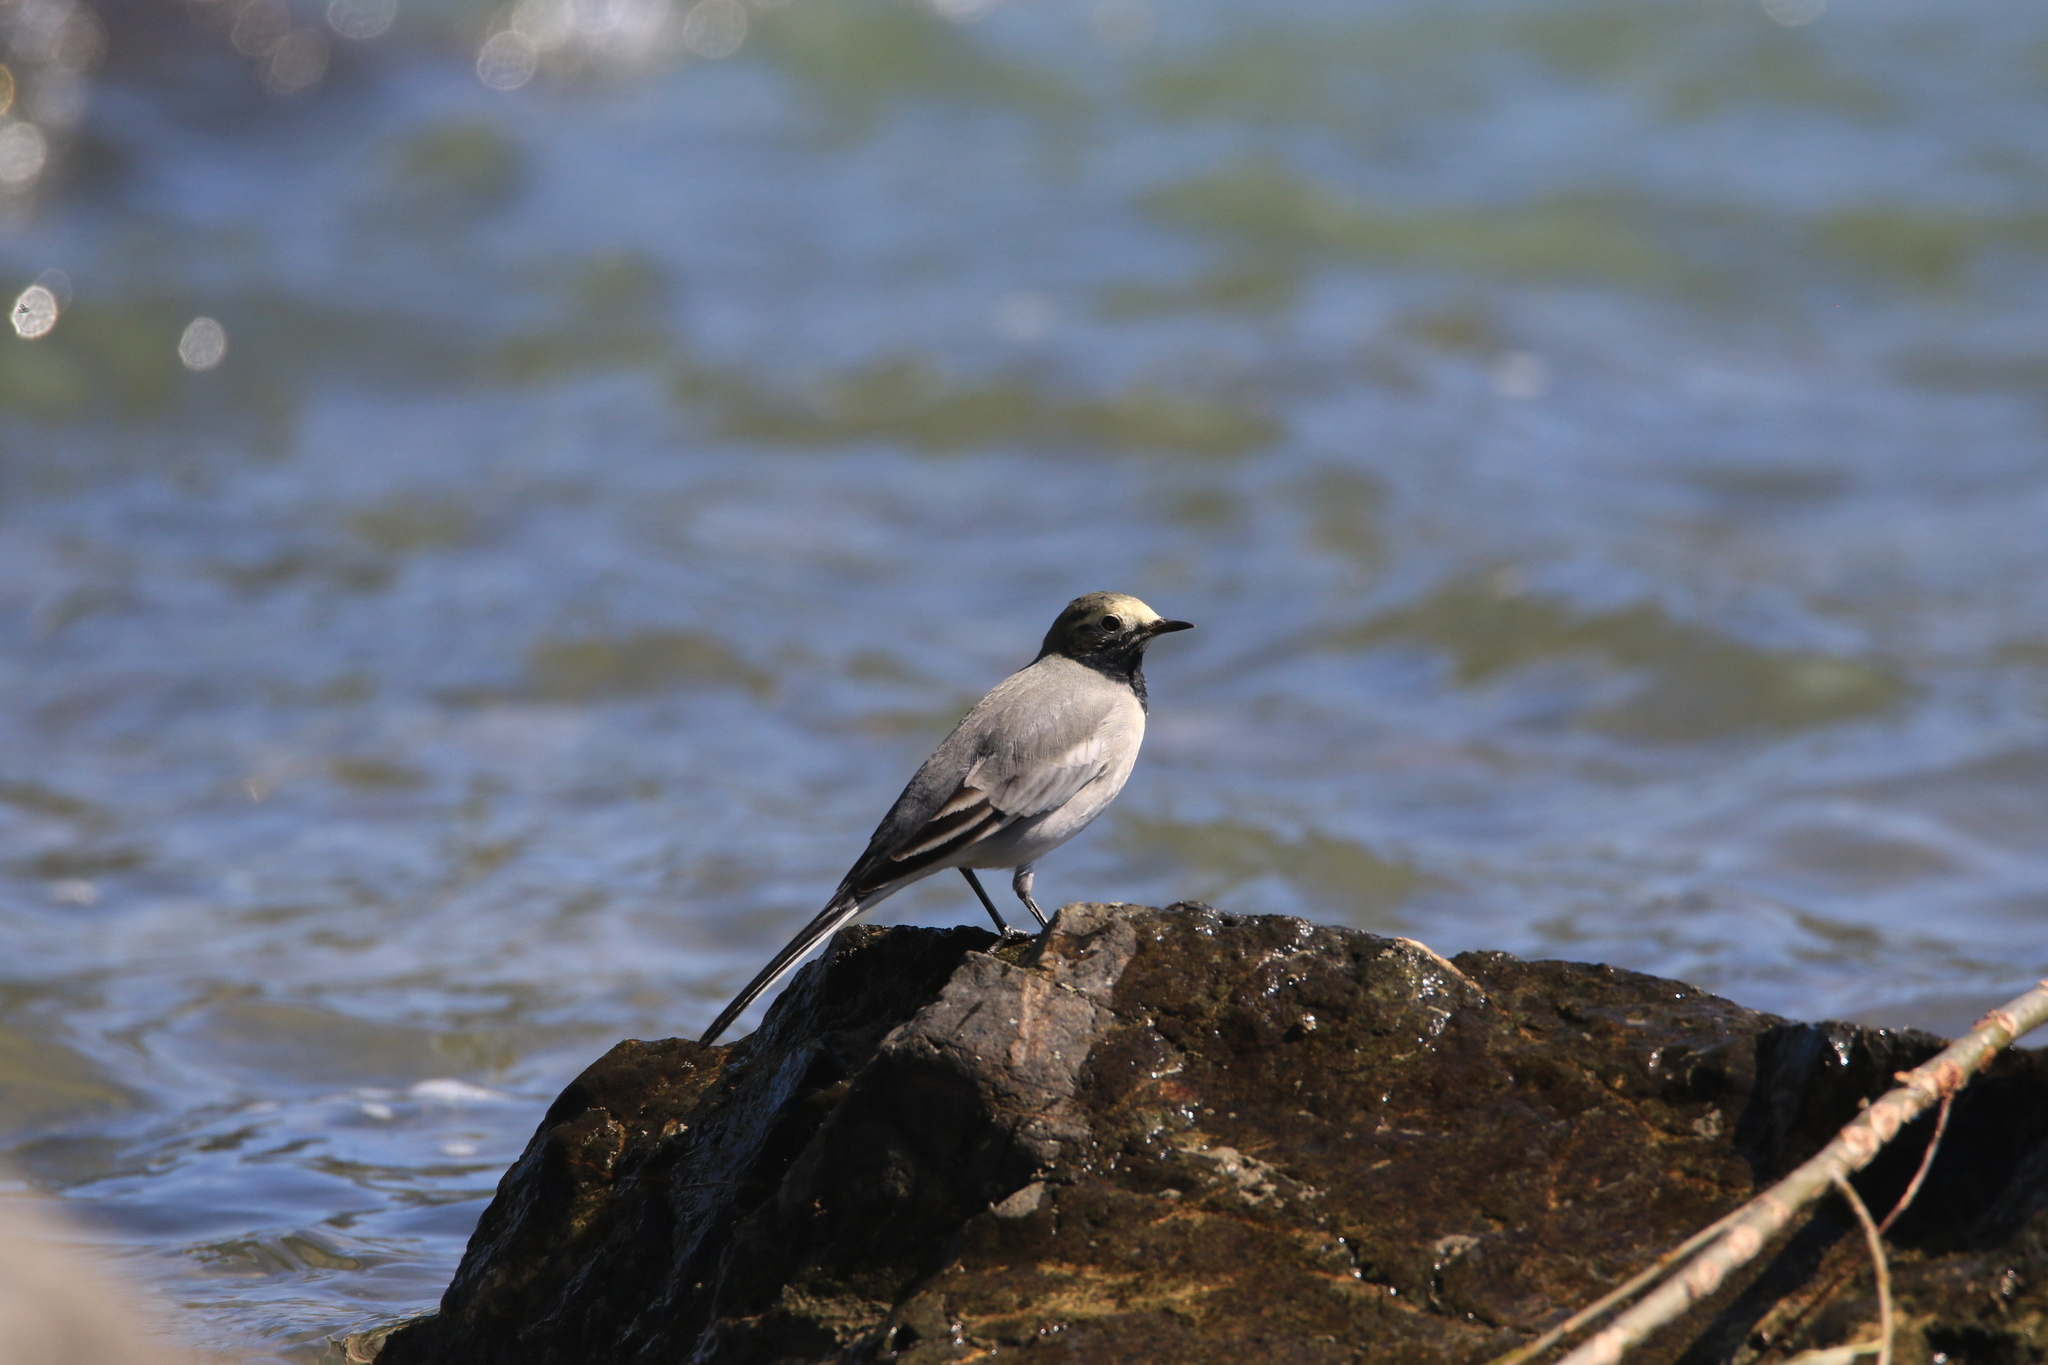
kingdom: Animalia
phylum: Chordata
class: Aves
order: Passeriformes
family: Motacillidae
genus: Motacilla
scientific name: Motacilla alba
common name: White wagtail
